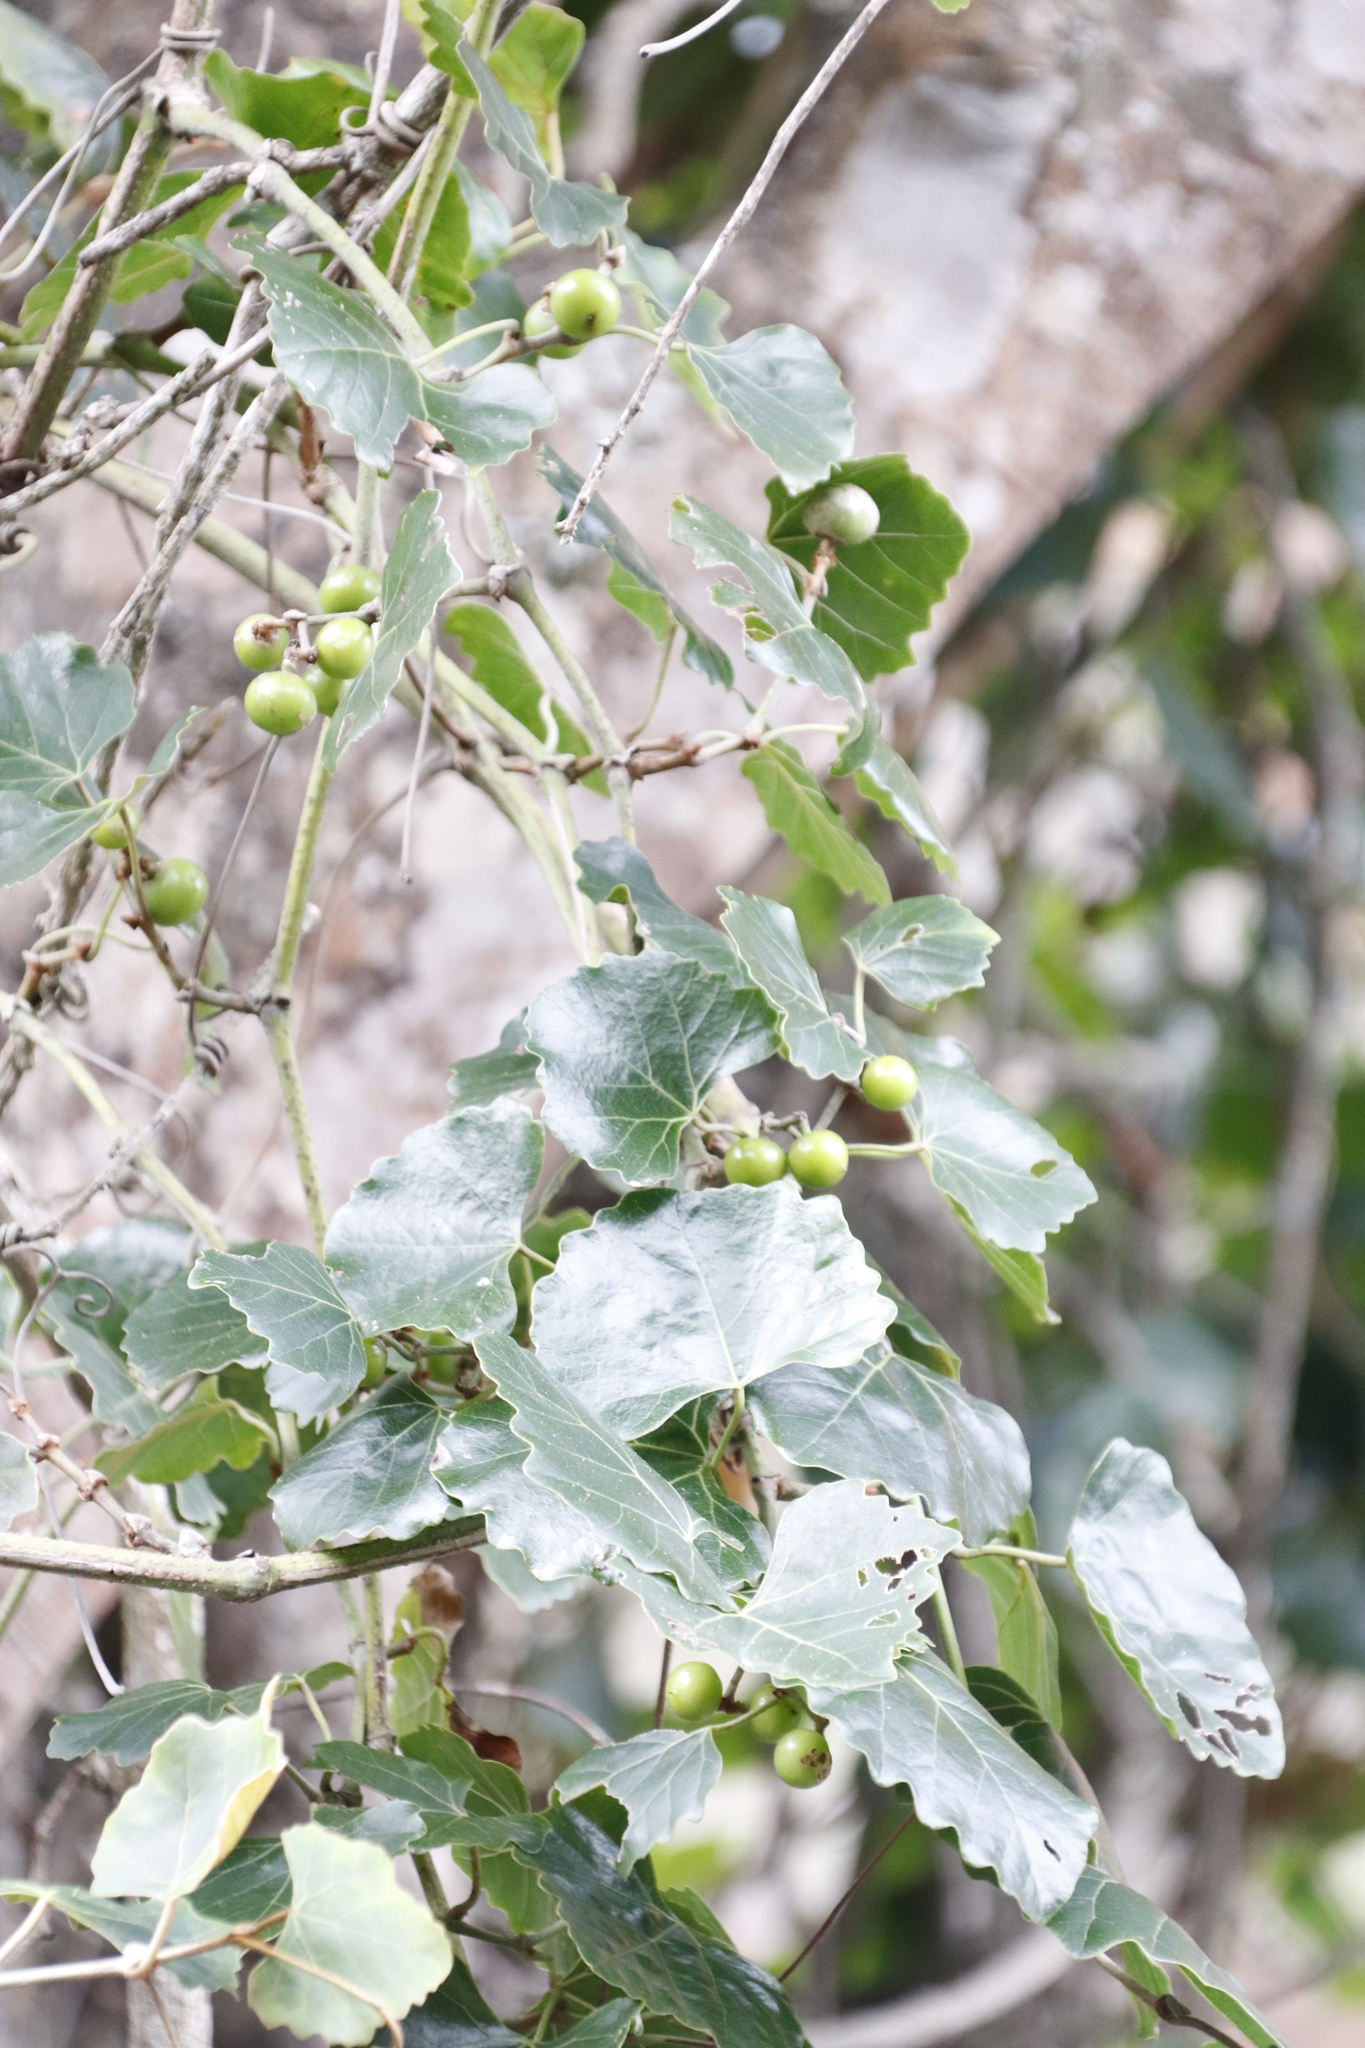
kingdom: Plantae
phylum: Tracheophyta
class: Magnoliopsida
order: Vitales
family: Vitaceae
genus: Rhoicissus
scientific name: Rhoicissus tomentosa
